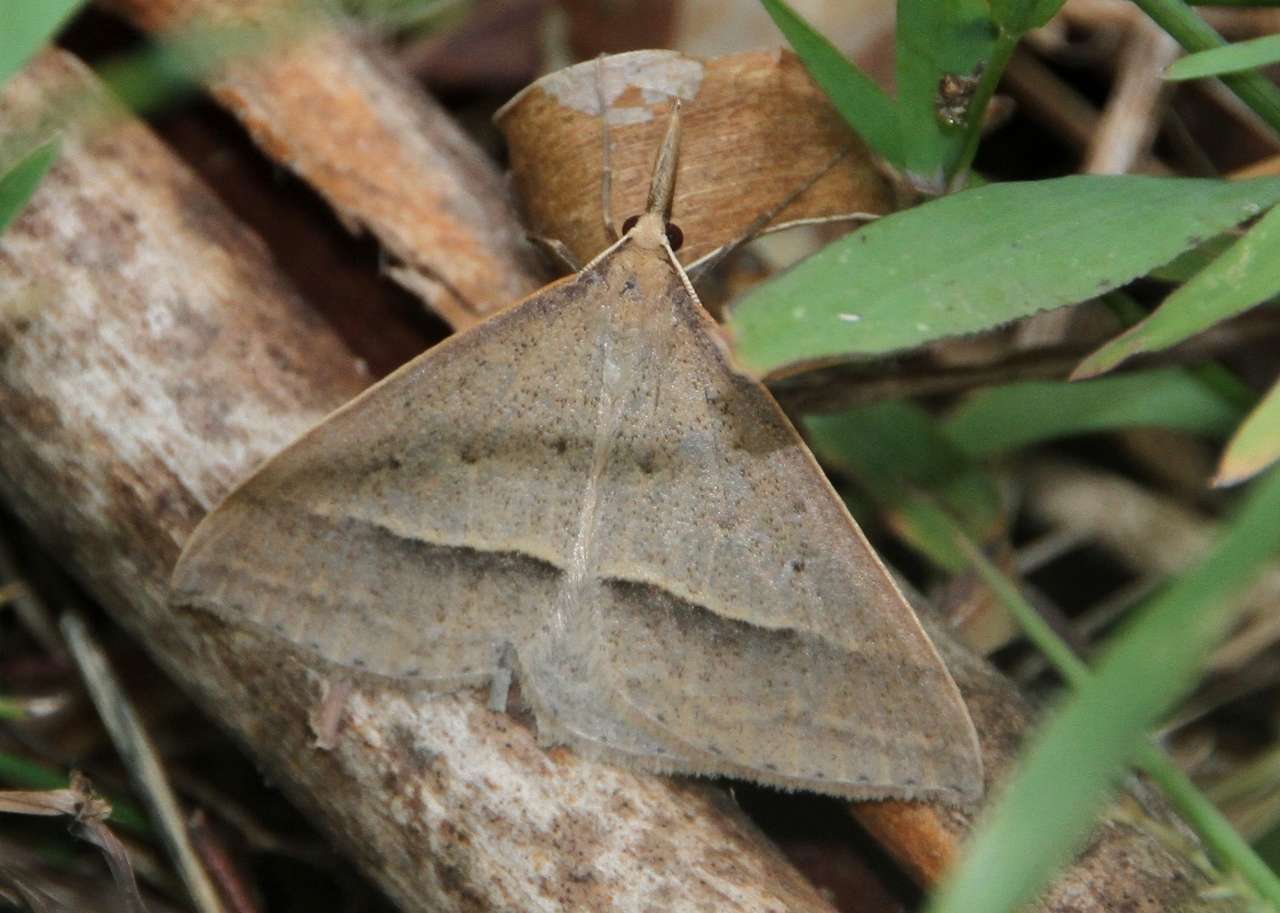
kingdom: Animalia
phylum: Arthropoda
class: Insecta
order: Lepidoptera
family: Geometridae
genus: Epidesmia
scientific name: Epidesmia hypenaria
